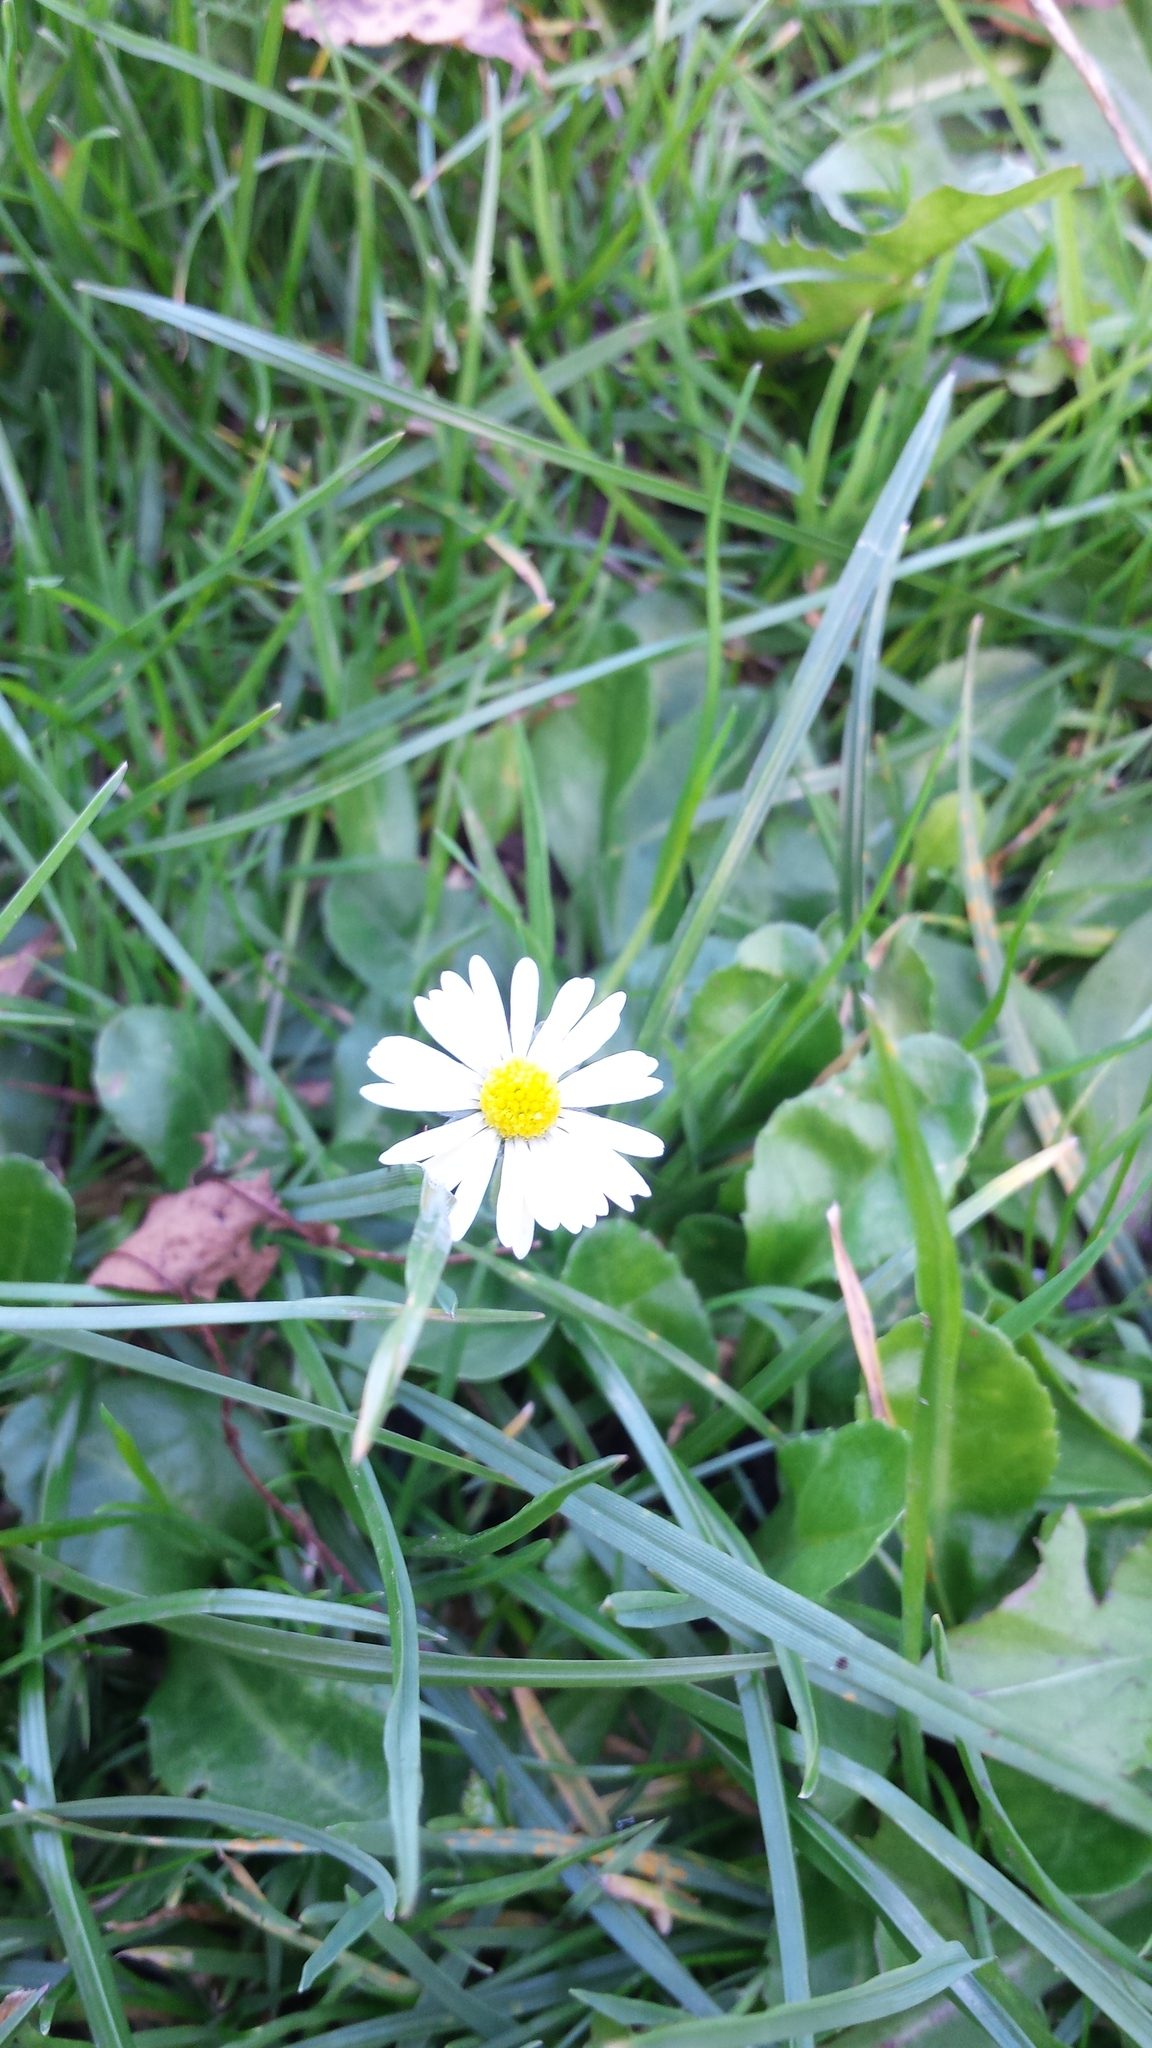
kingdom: Plantae
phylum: Tracheophyta
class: Magnoliopsida
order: Asterales
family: Asteraceae
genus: Bellis
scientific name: Bellis perennis
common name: Lawndaisy
